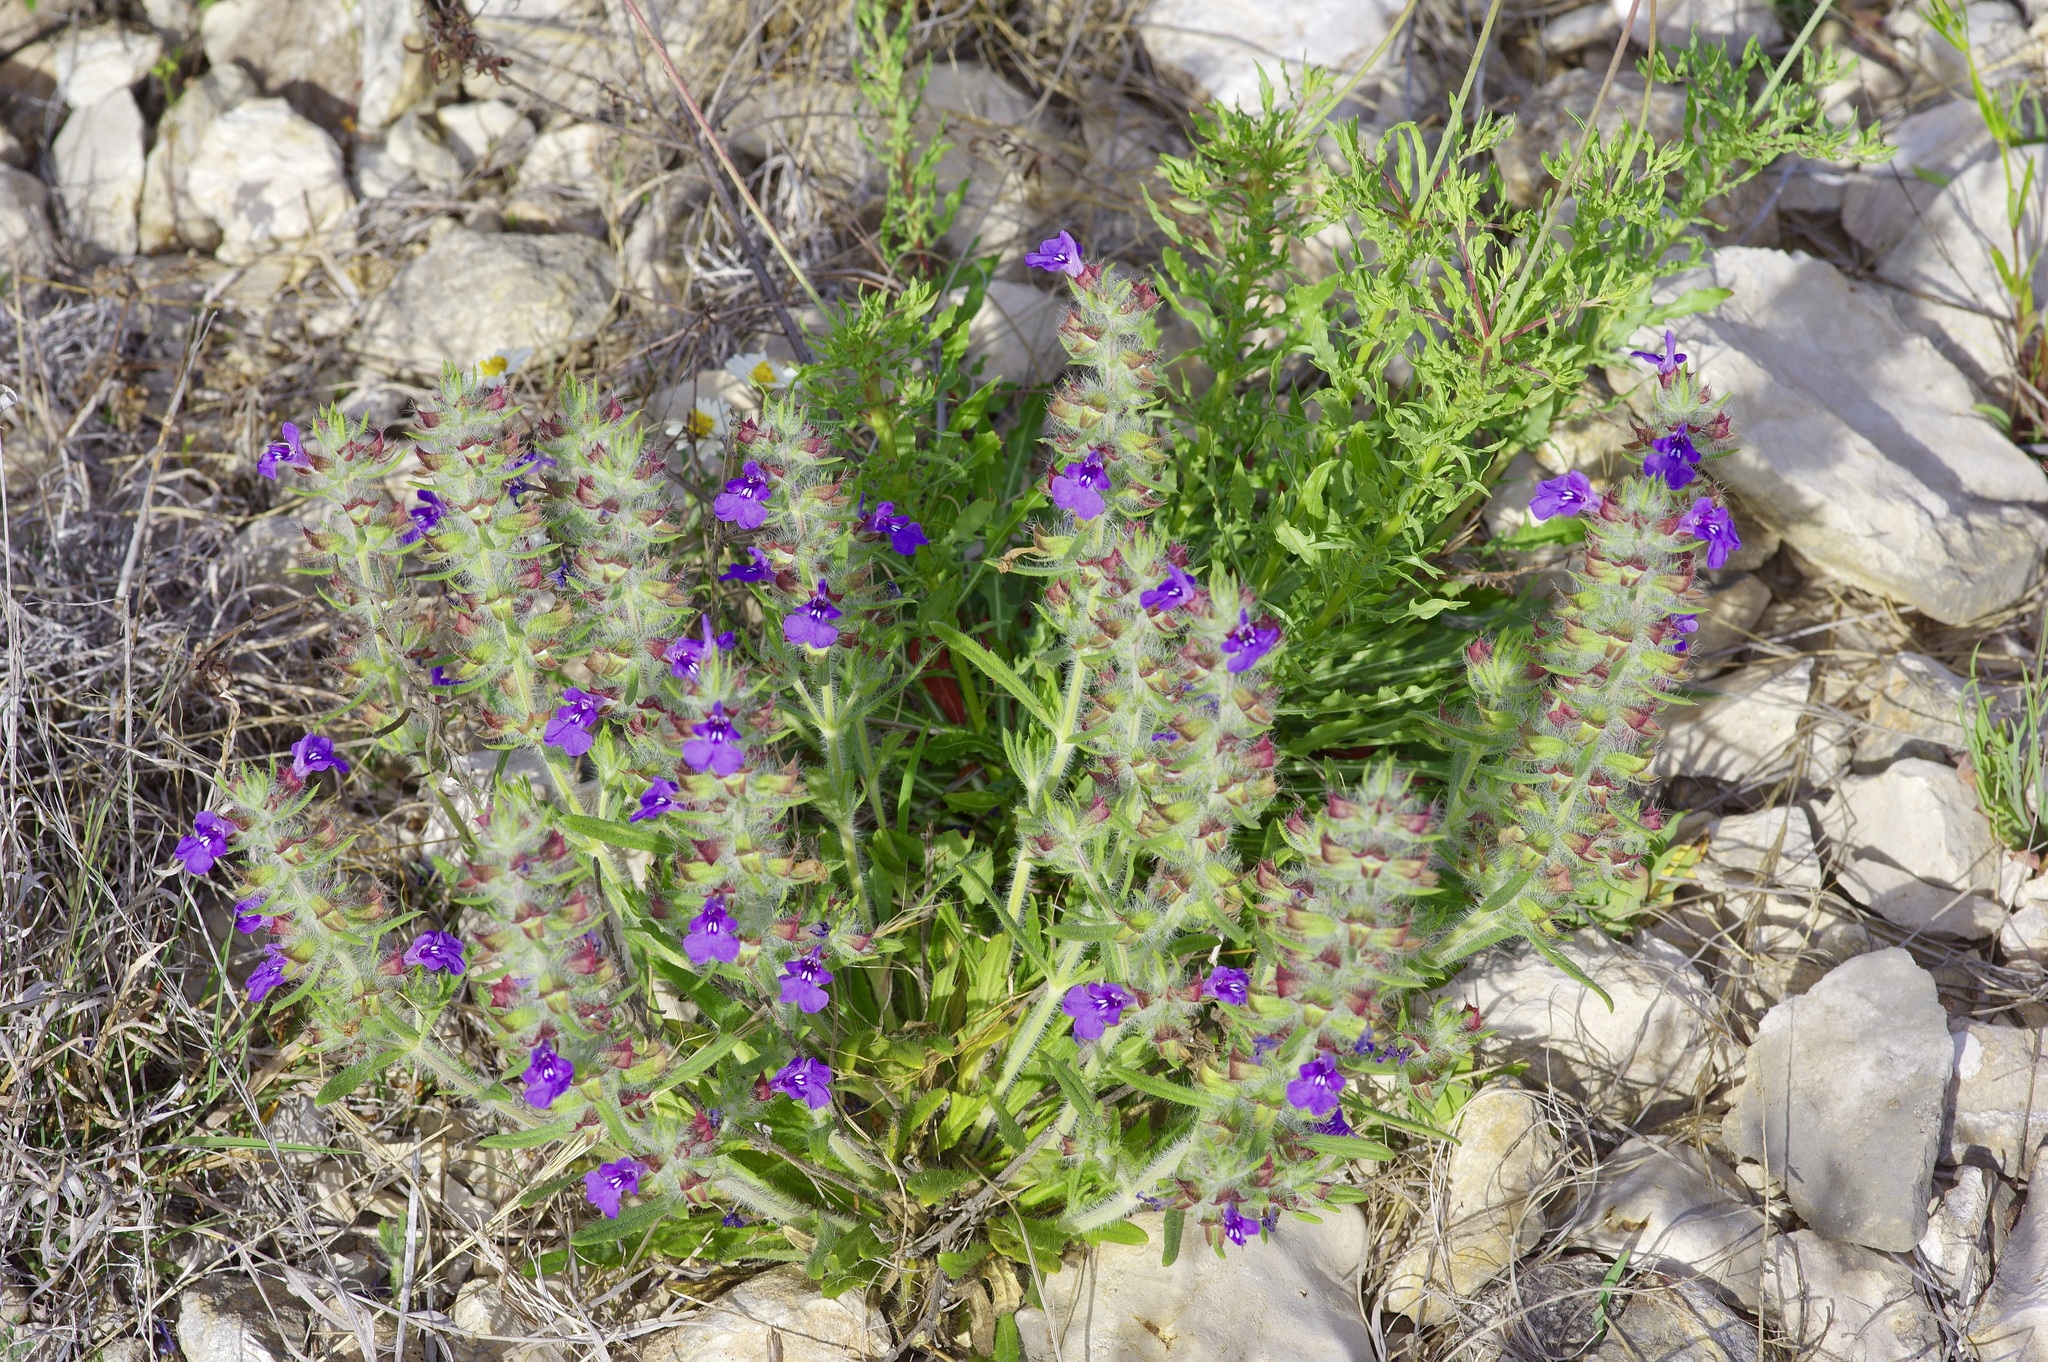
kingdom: Plantae
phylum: Tracheophyta
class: Magnoliopsida
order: Lamiales
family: Lamiaceae
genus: Salvia
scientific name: Salvia texana
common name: Texas sage
